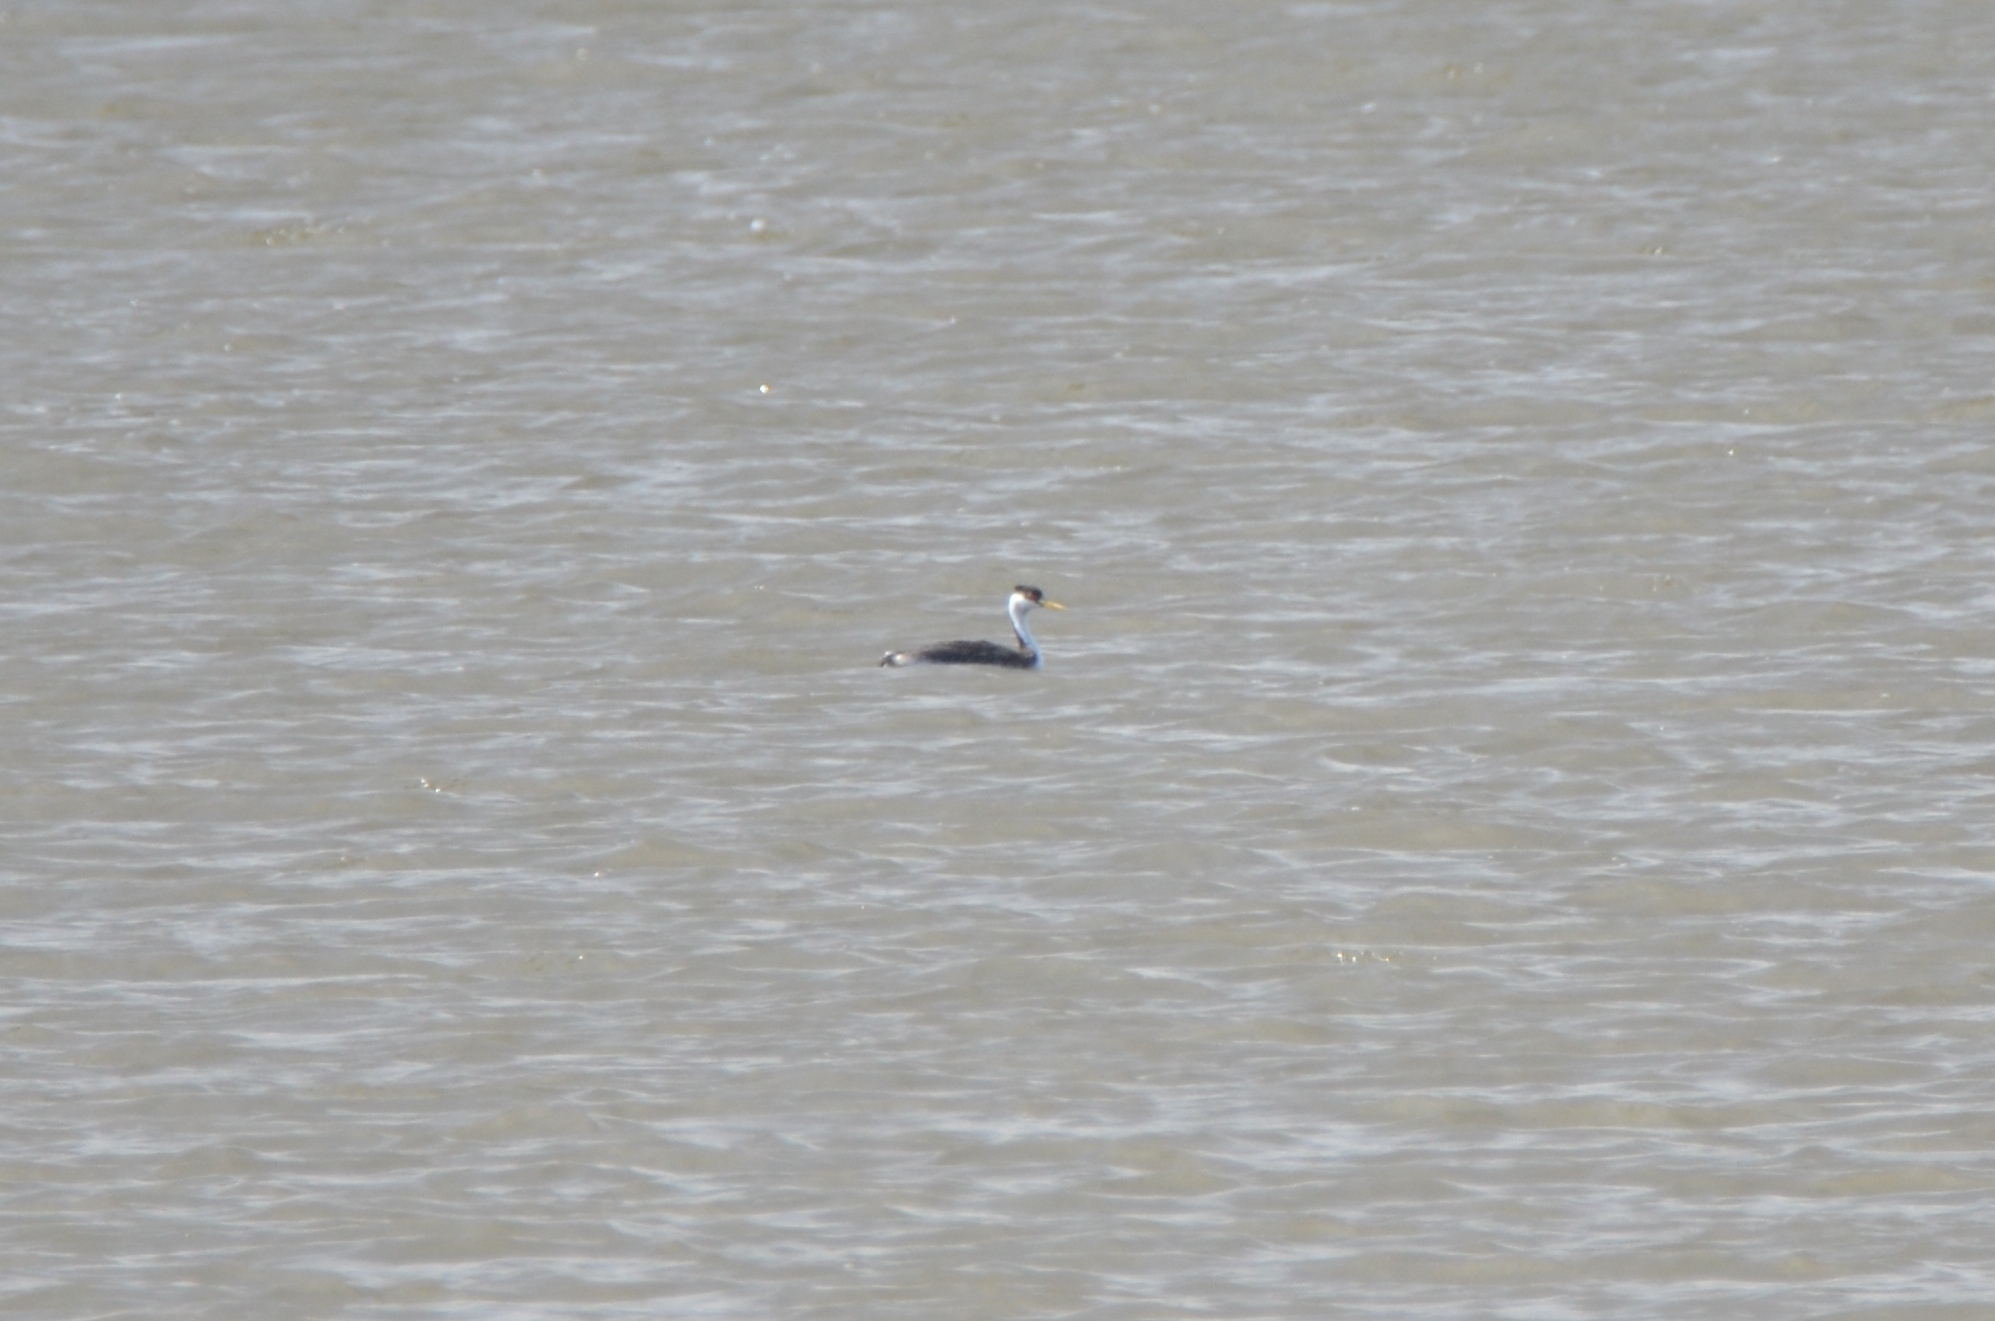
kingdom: Animalia
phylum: Chordata
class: Aves
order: Podicipediformes
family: Podicipedidae
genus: Aechmophorus
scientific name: Aechmophorus occidentalis
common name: Western grebe
